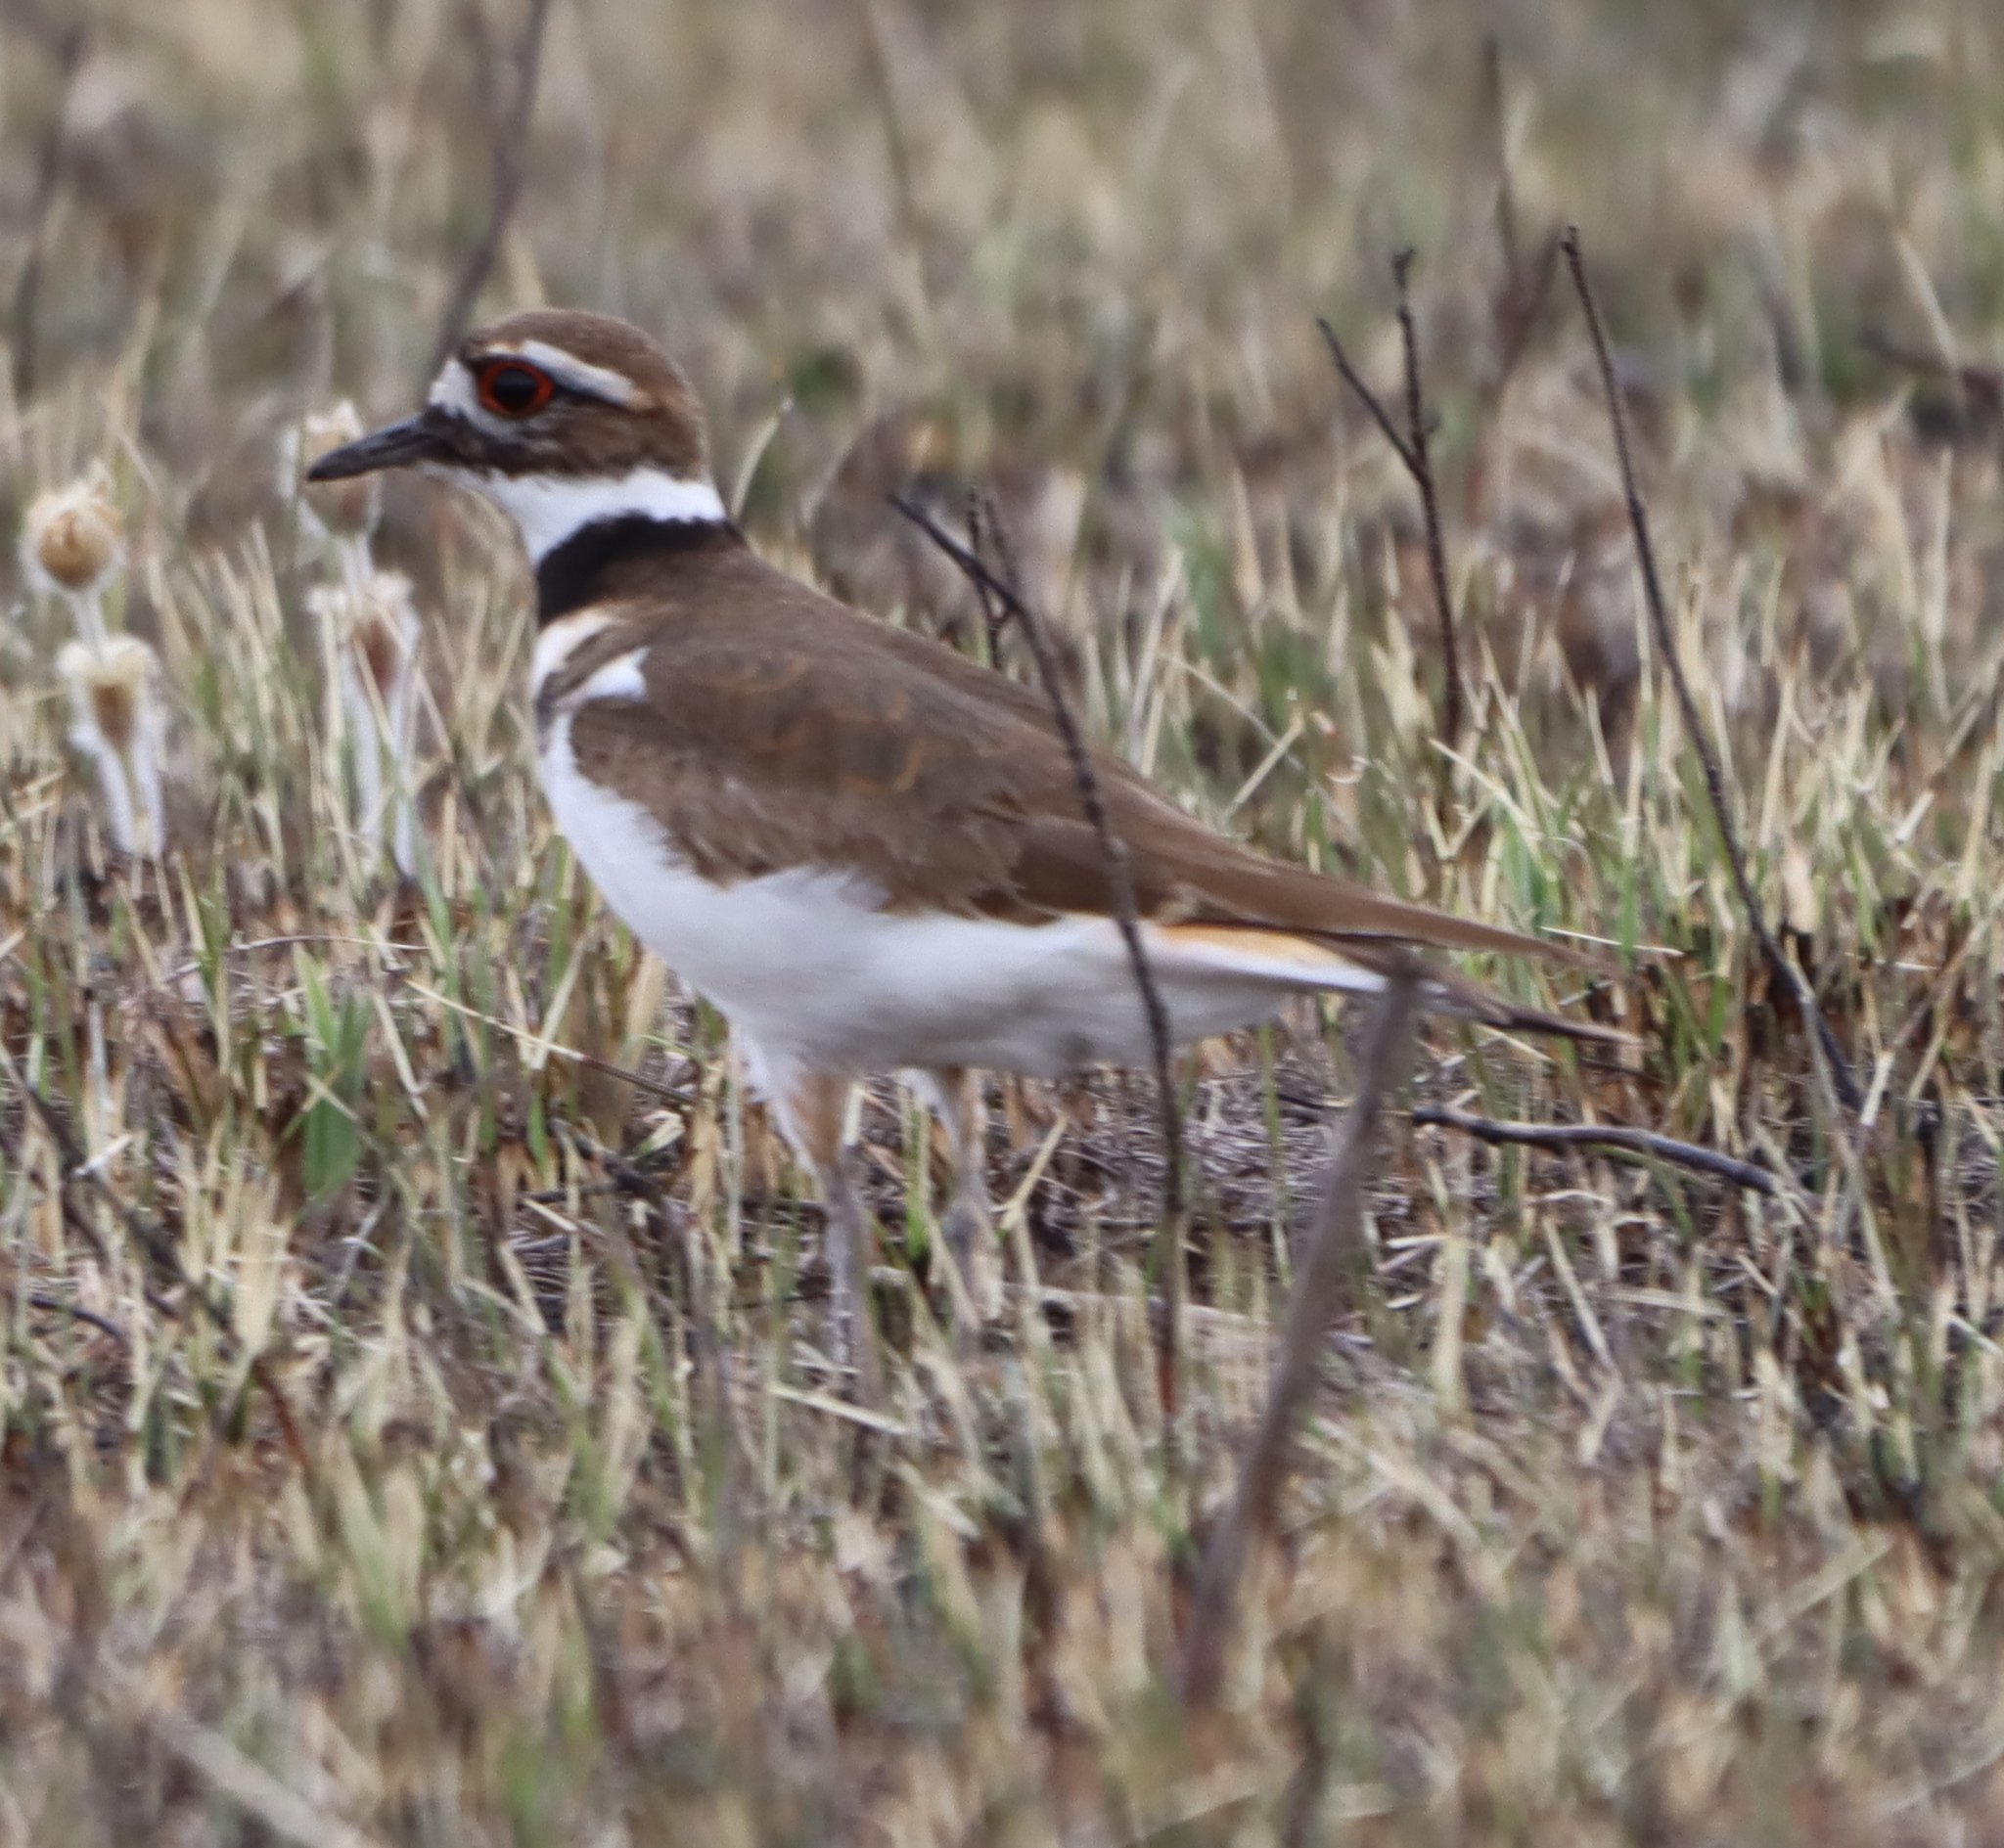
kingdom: Animalia
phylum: Chordata
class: Aves
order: Charadriiformes
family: Charadriidae
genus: Charadrius
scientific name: Charadrius vociferus
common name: Killdeer
